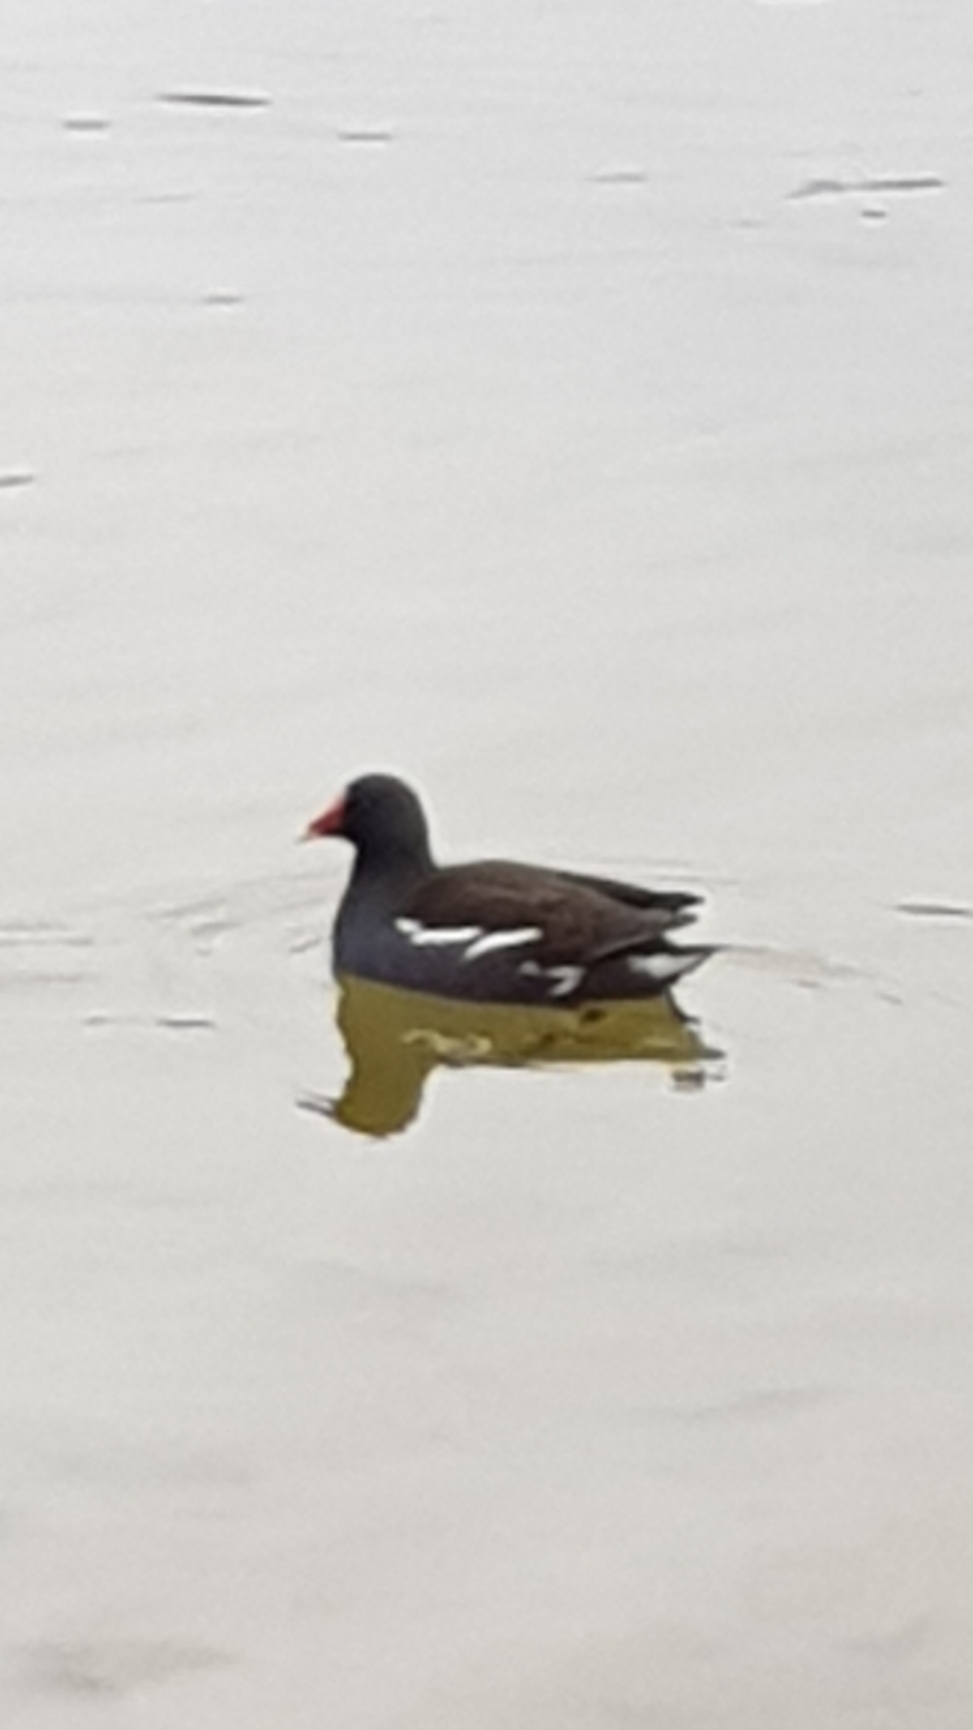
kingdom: Animalia
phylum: Chordata
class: Aves
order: Gruiformes
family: Rallidae
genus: Gallinula
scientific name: Gallinula chloropus
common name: Common moorhen
